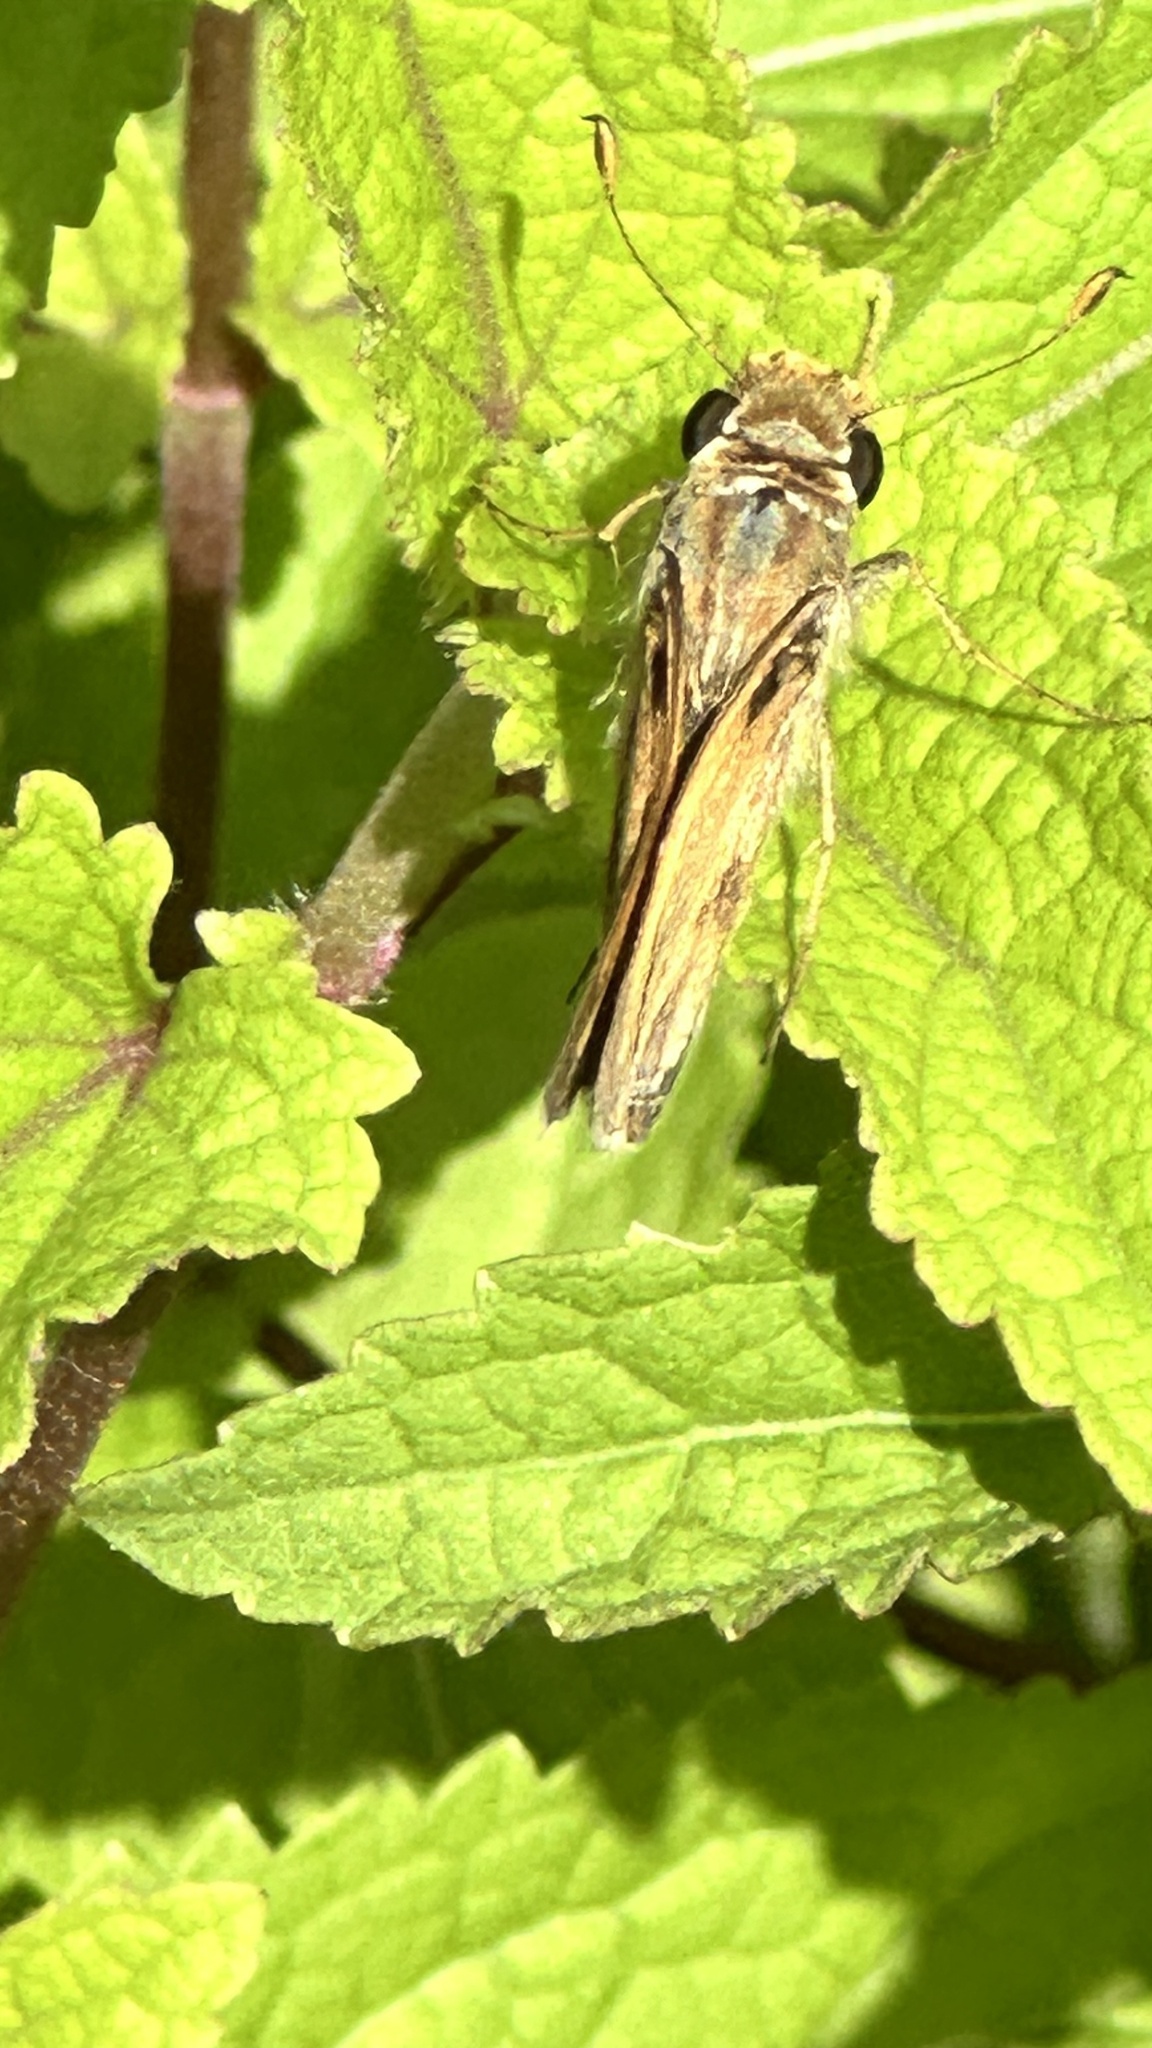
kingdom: Animalia
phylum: Arthropoda
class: Insecta
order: Lepidoptera
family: Hesperiidae
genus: Atalopedes
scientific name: Atalopedes
